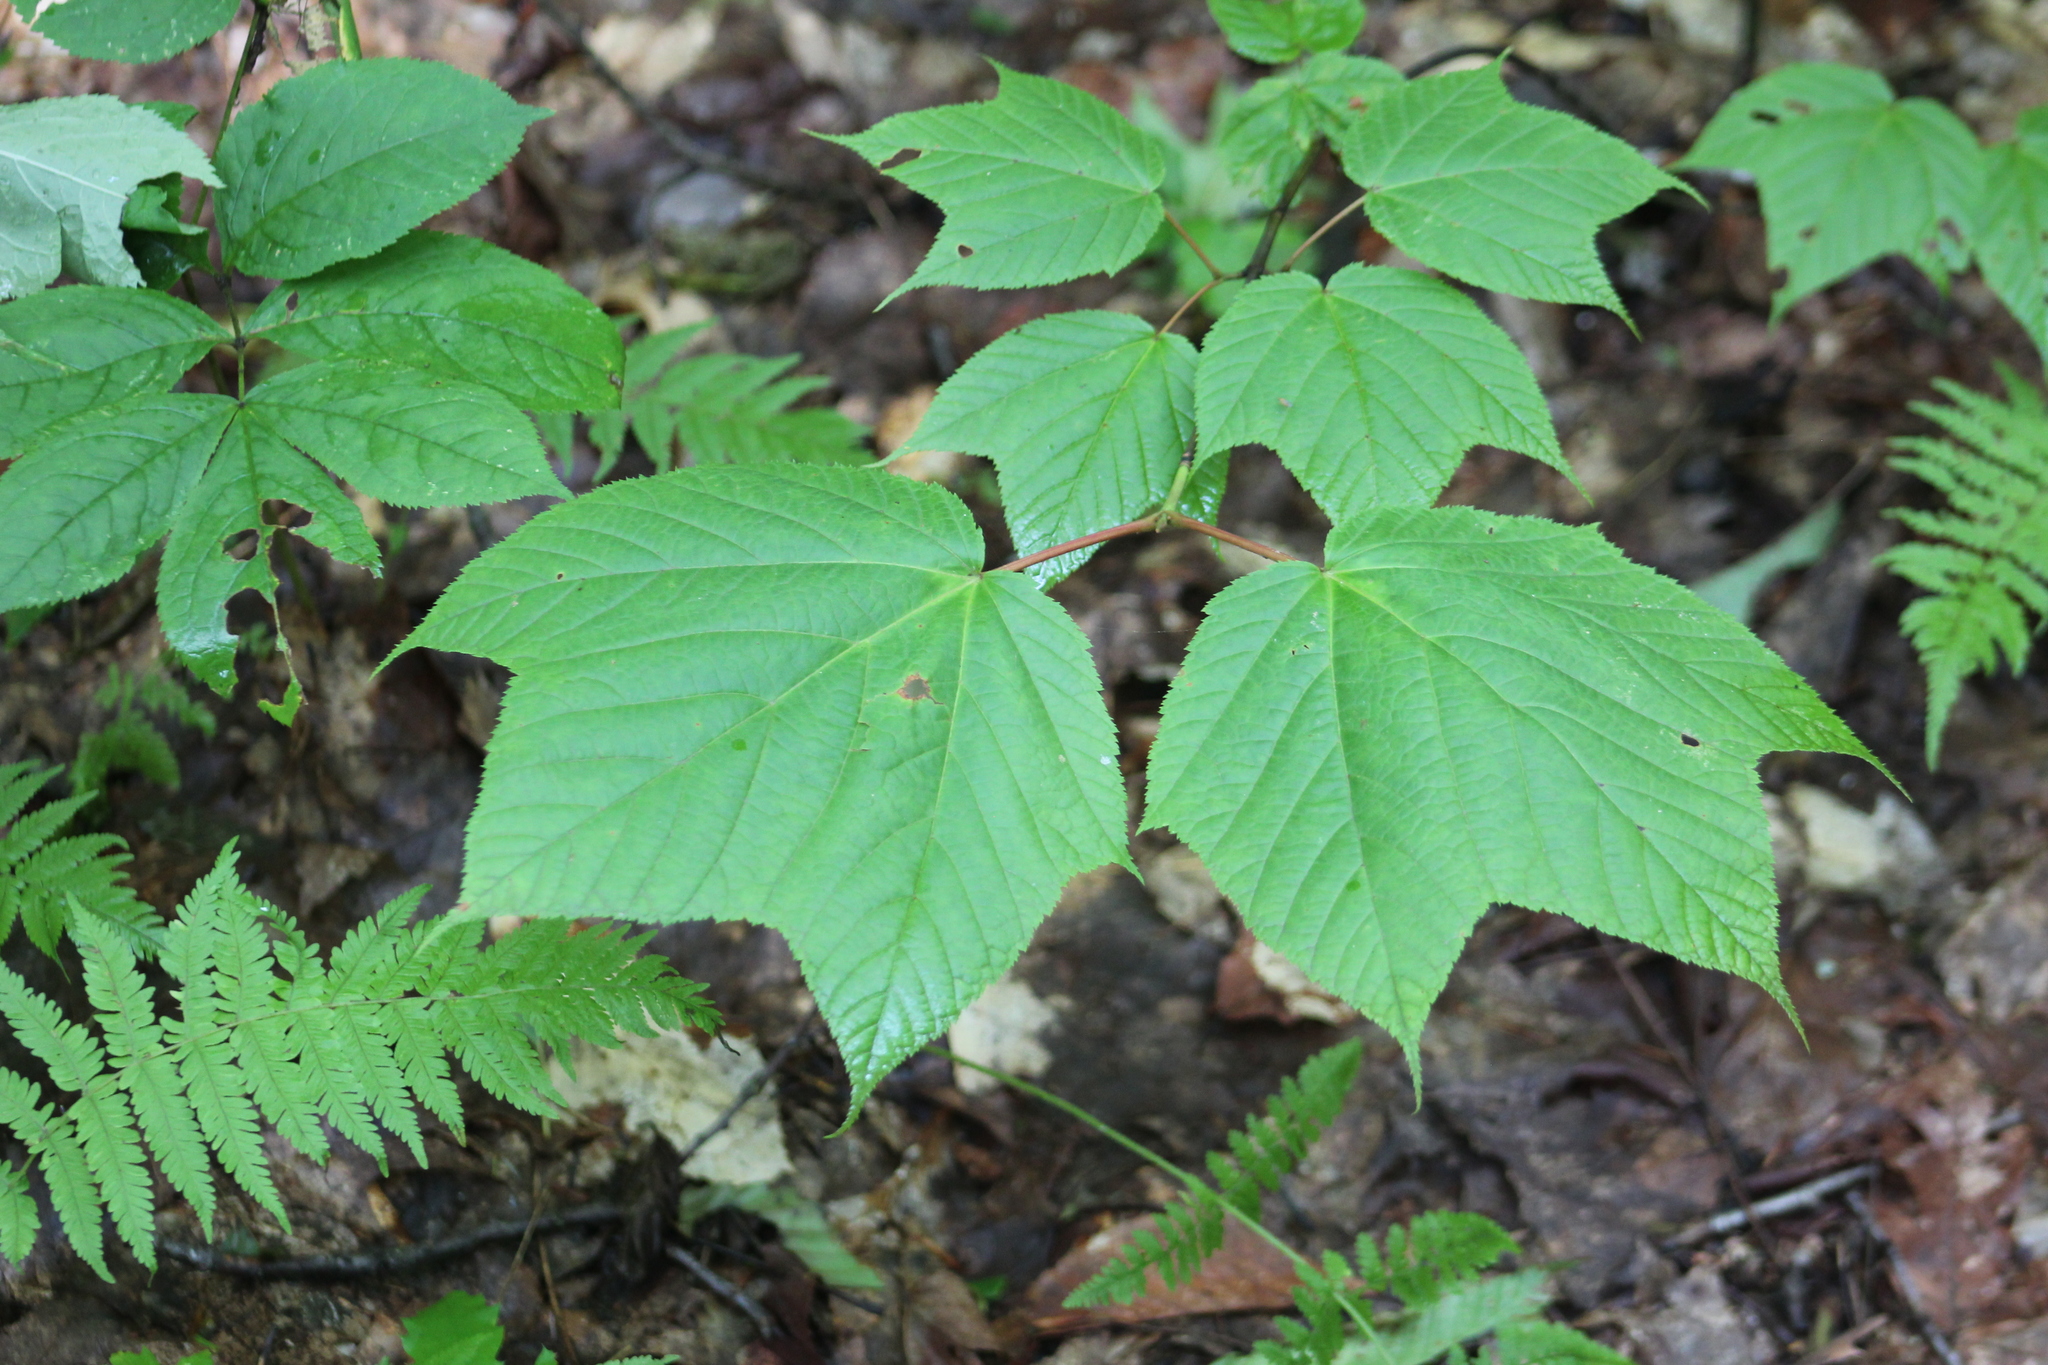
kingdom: Plantae
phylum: Tracheophyta
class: Magnoliopsida
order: Sapindales
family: Sapindaceae
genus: Acer
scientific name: Acer pensylvanicum
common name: Moosewood
